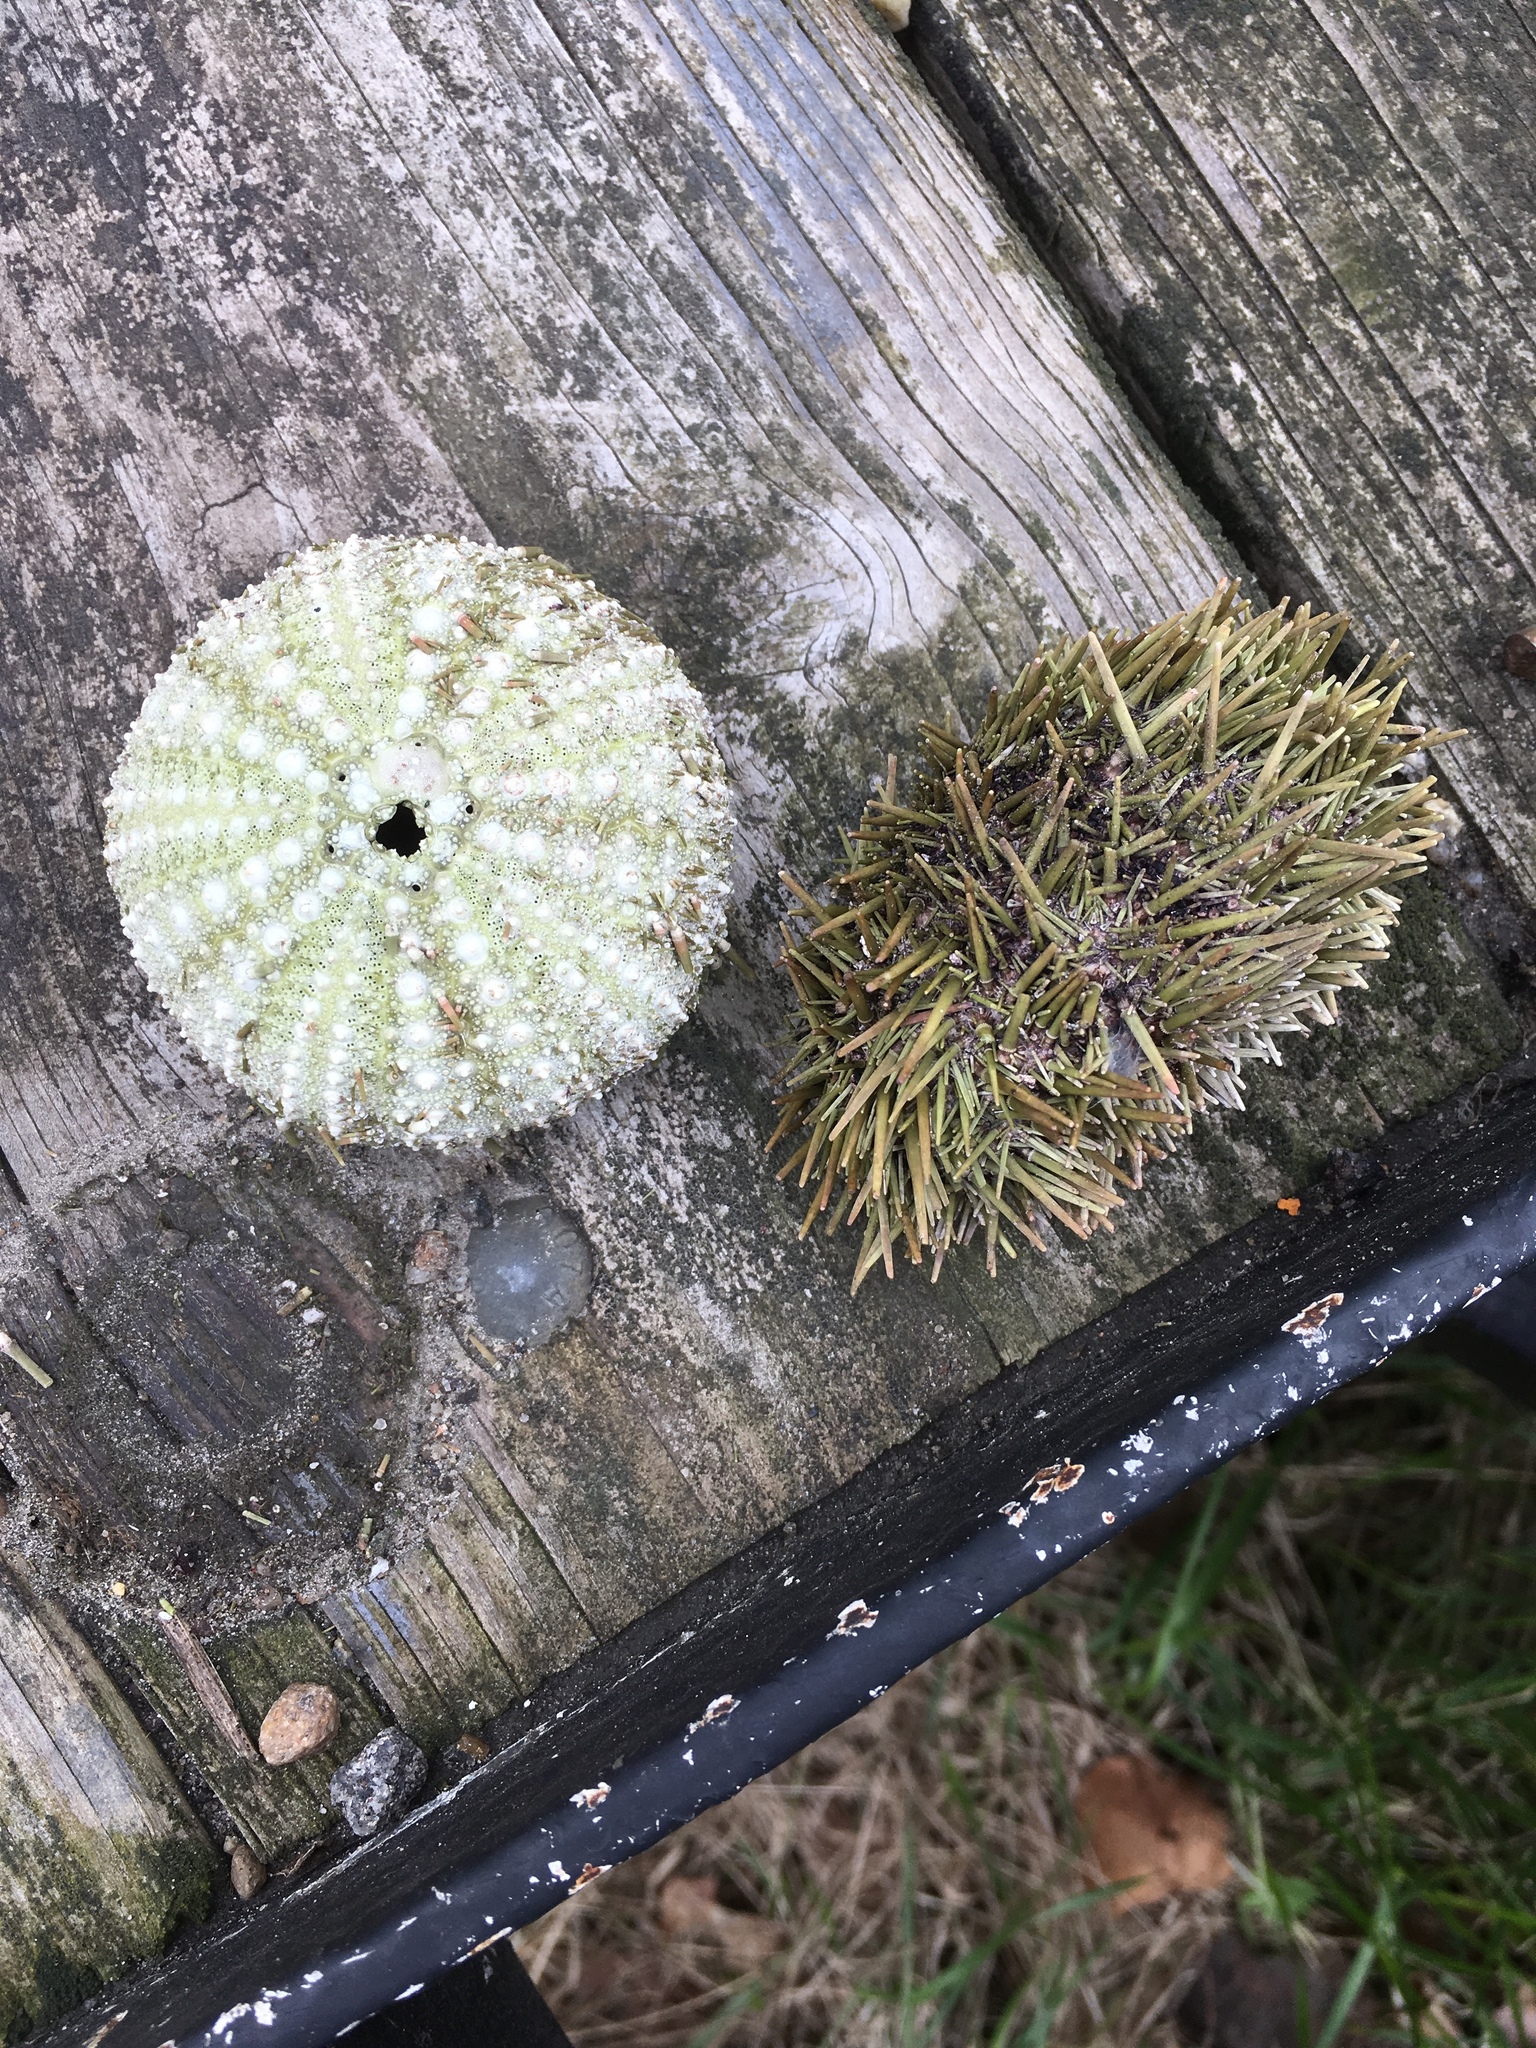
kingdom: Animalia
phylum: Echinodermata
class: Echinoidea
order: Camarodonta
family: Strongylocentrotidae
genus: Strongylocentrotus
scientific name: Strongylocentrotus droebachiensis
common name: Northern sea urchin
